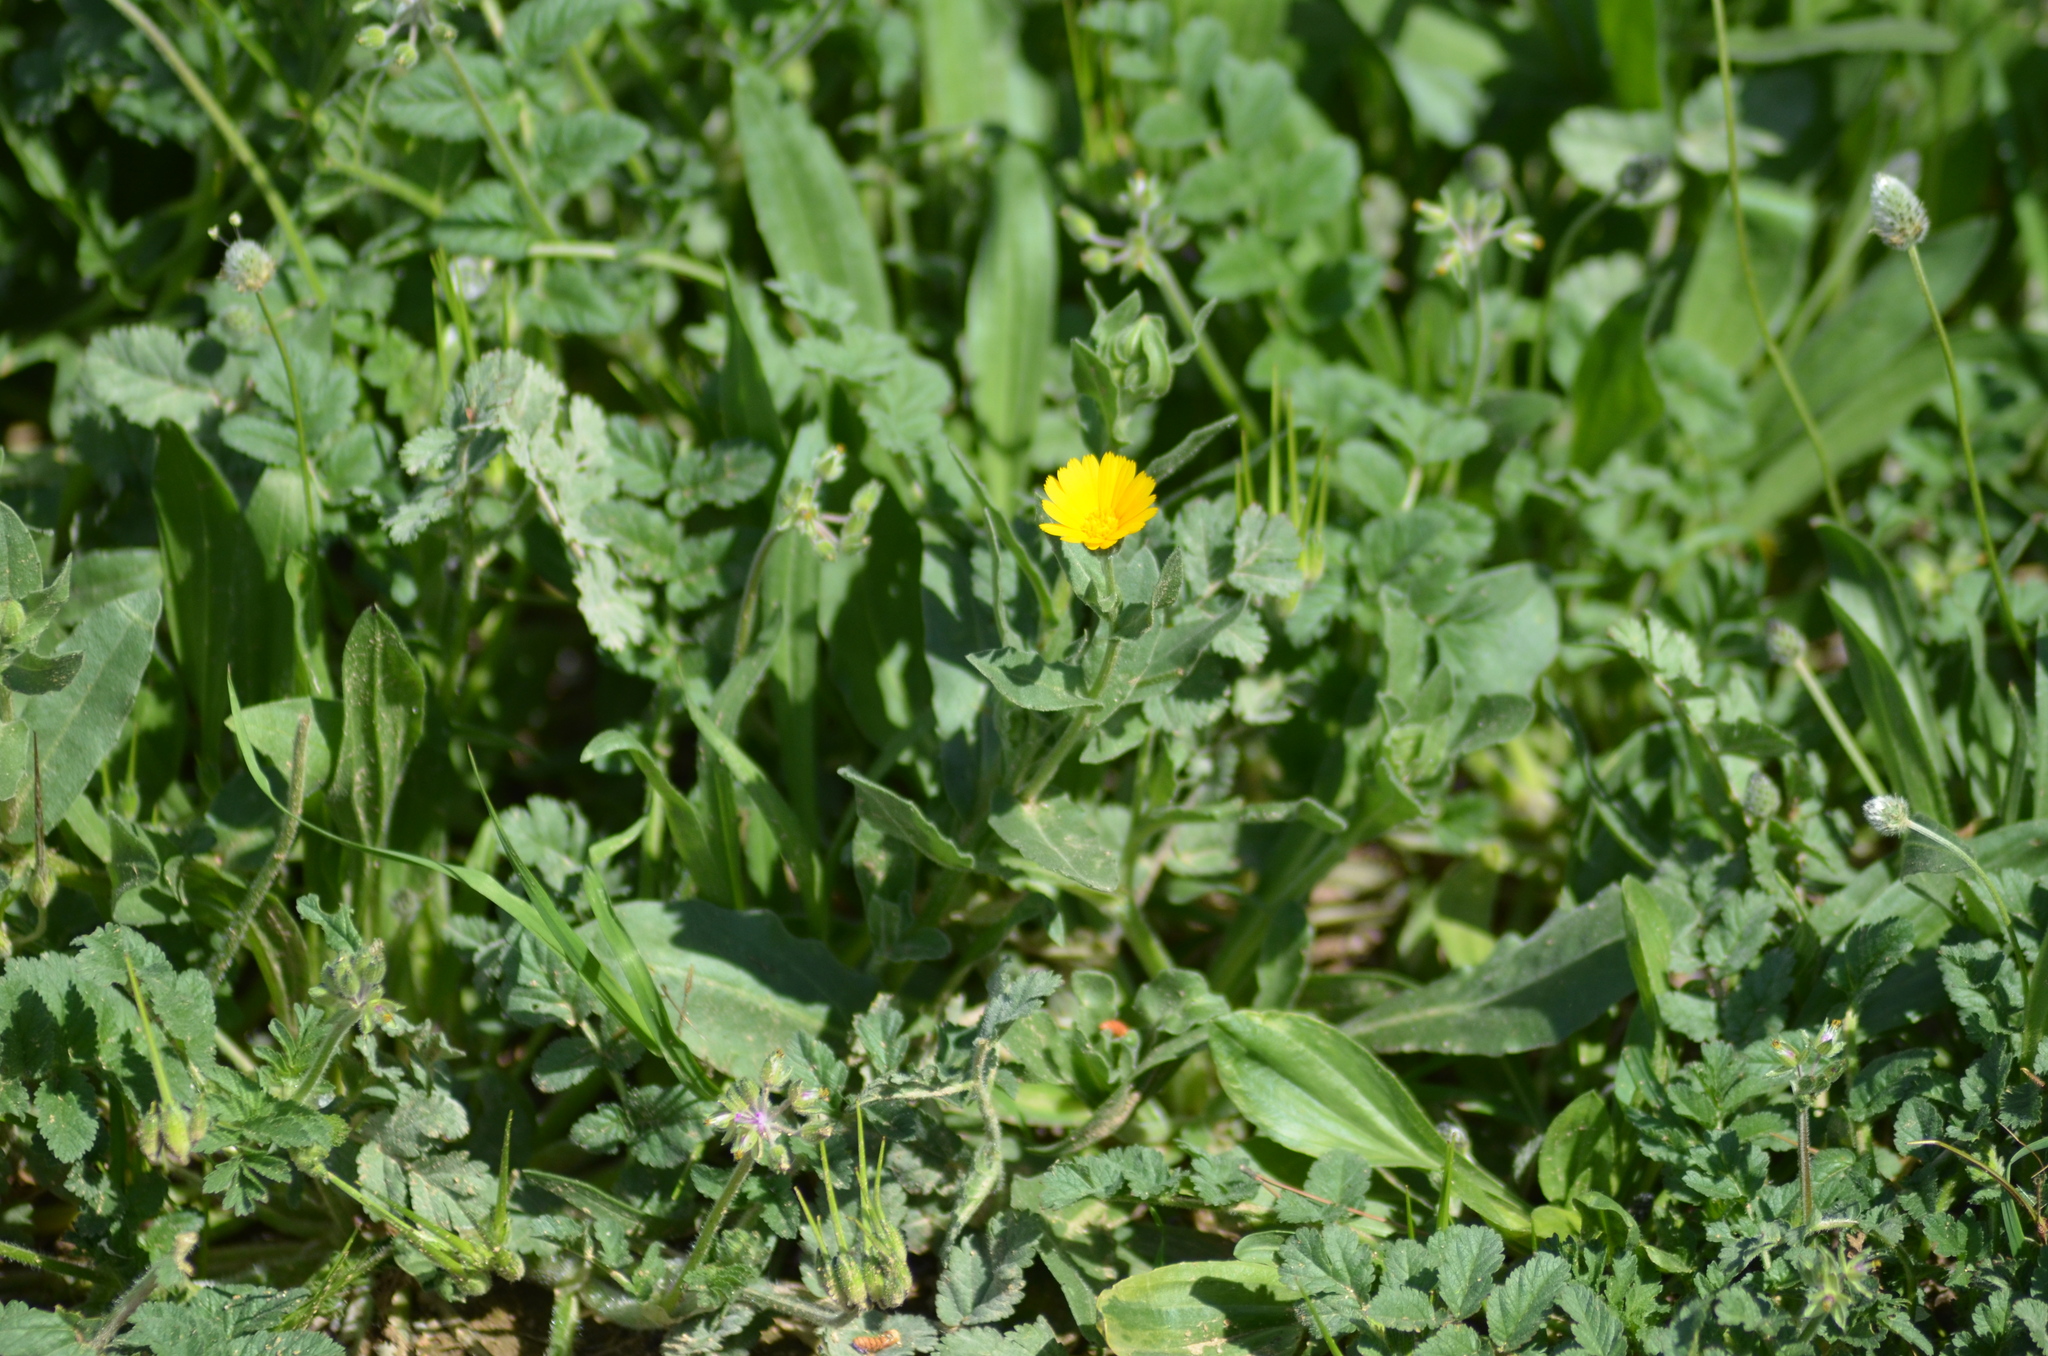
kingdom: Plantae
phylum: Tracheophyta
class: Magnoliopsida
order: Asterales
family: Asteraceae
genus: Calendula
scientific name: Calendula arvensis
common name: Field marigold
